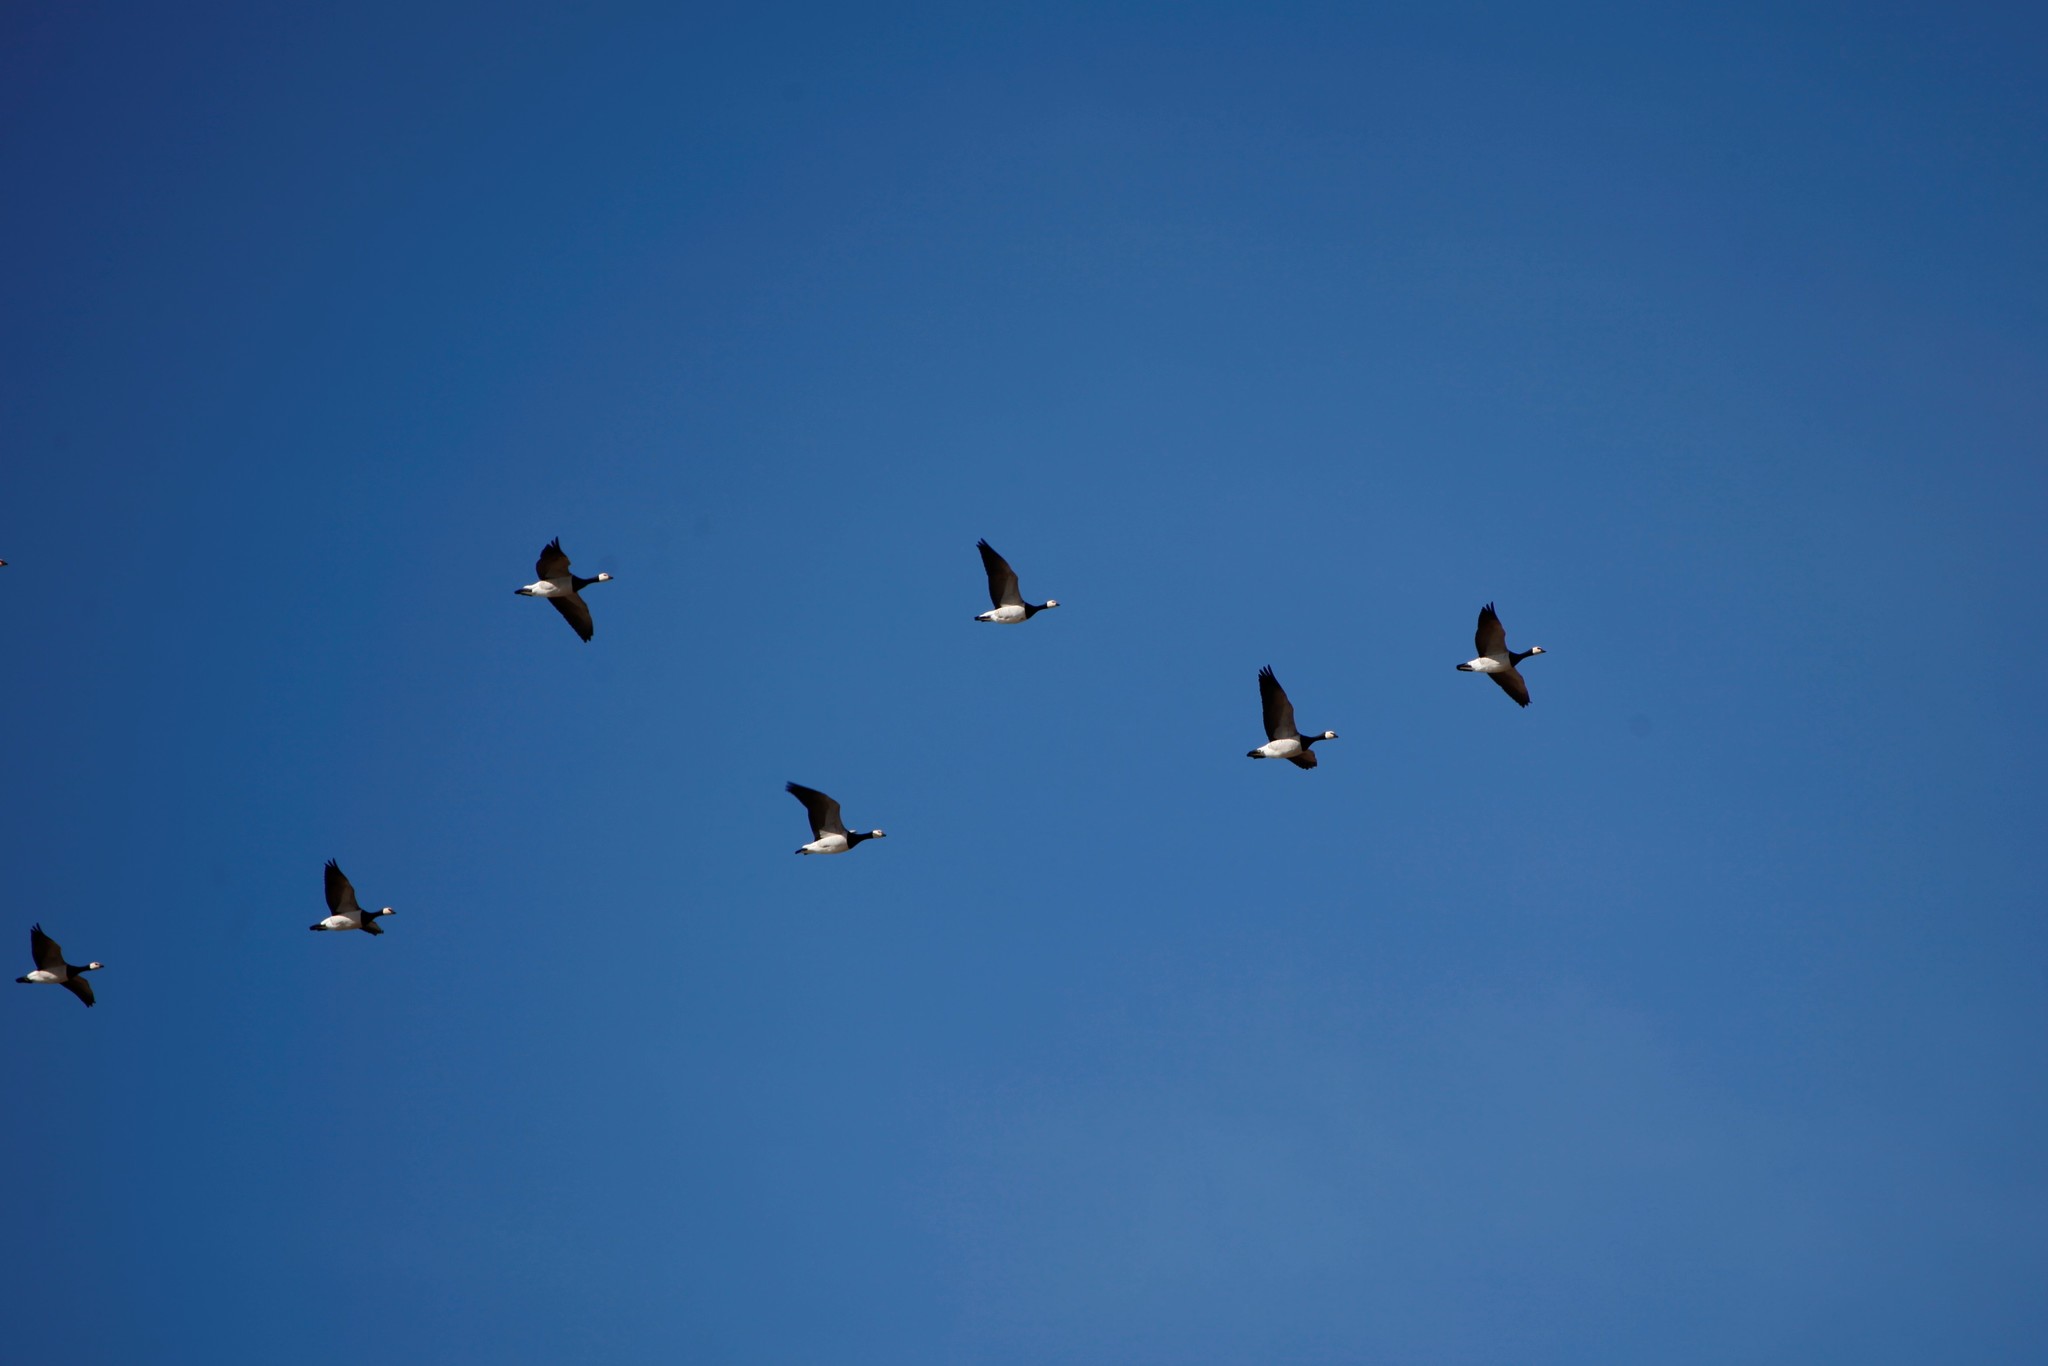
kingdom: Animalia
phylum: Chordata
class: Aves
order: Anseriformes
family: Anatidae
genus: Branta
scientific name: Branta leucopsis
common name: Barnacle goose
